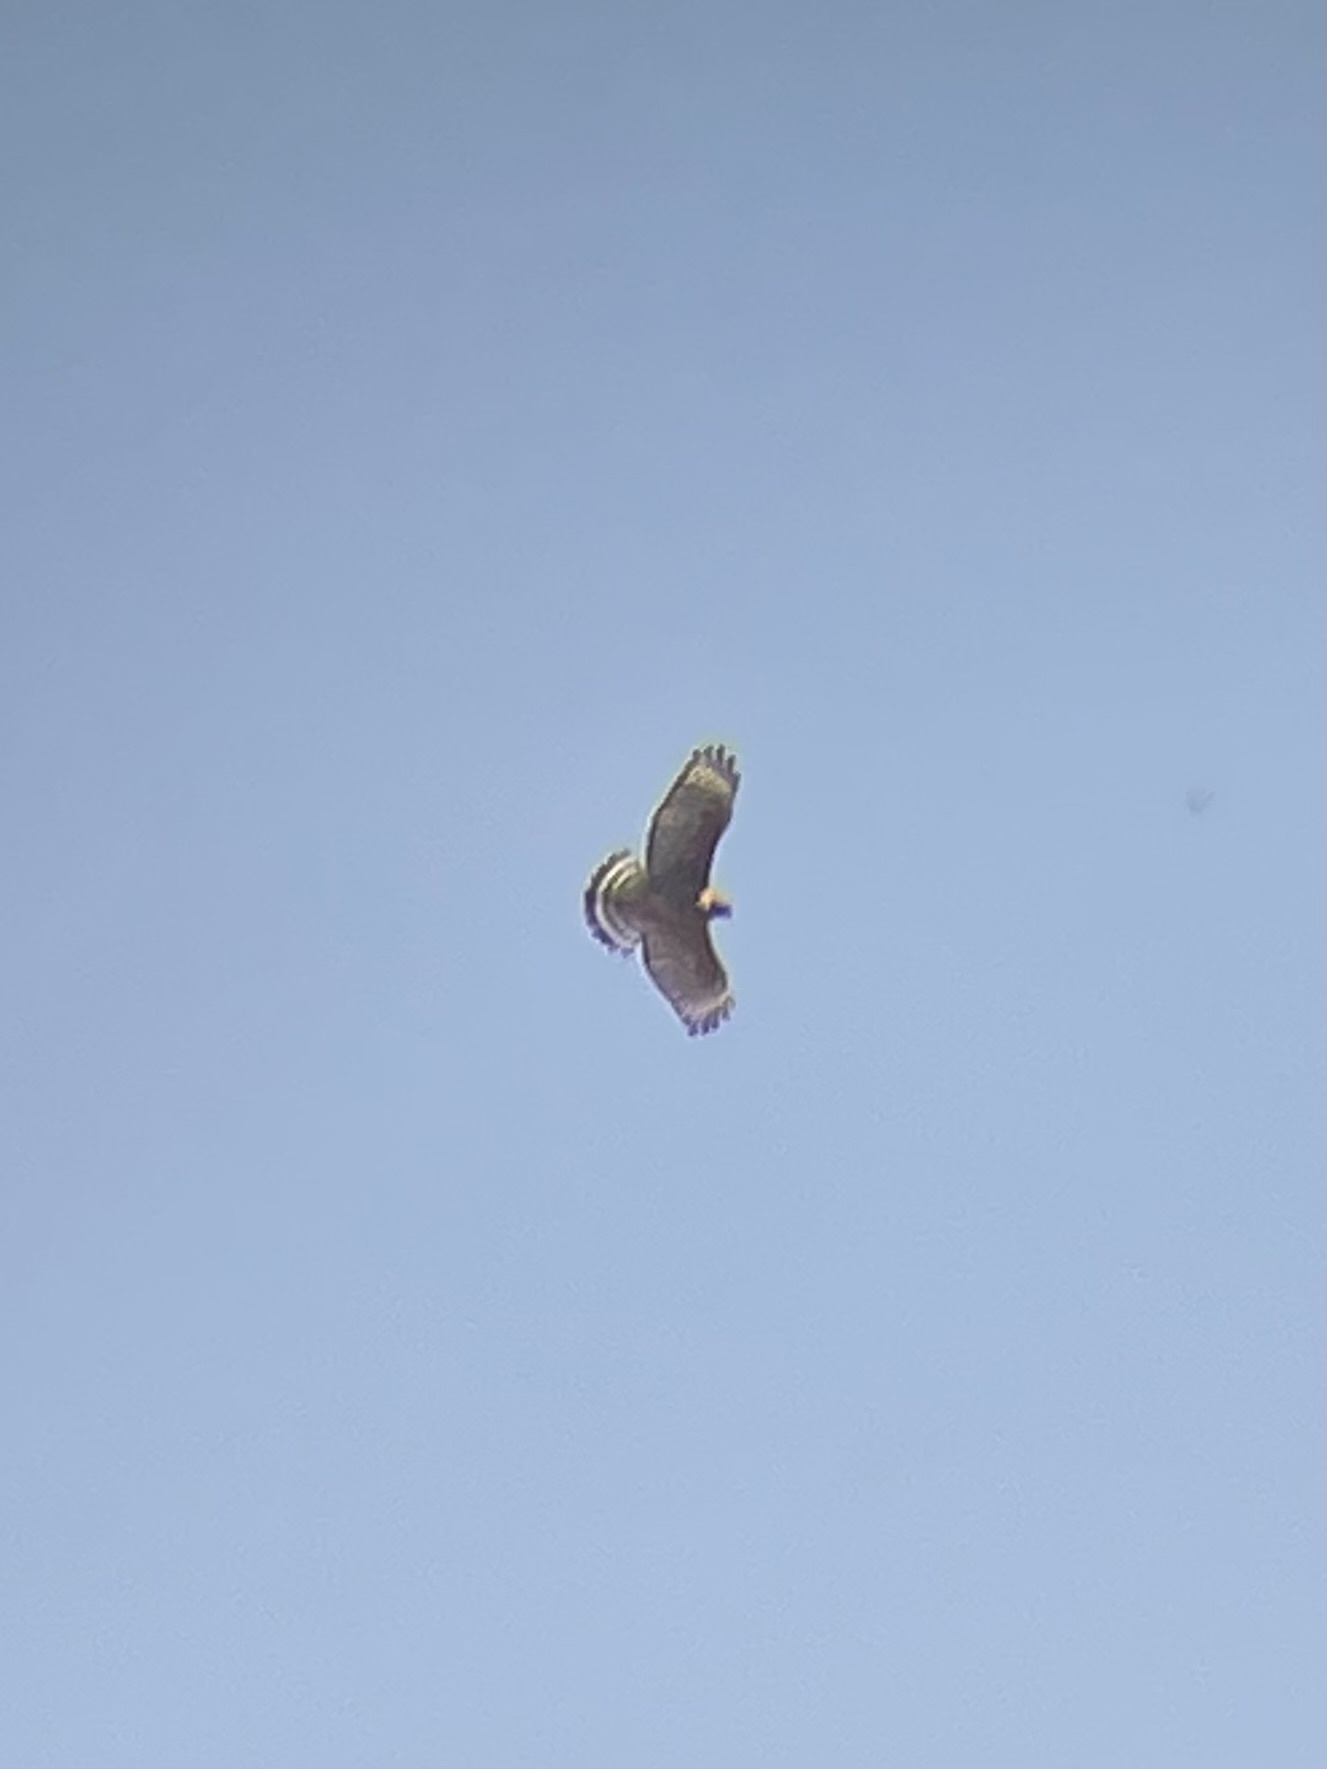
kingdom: Animalia
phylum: Chordata
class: Aves
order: Accipitriformes
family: Accipitridae
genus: Buteo
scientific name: Buteo lineatus
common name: Red-shouldered hawk
